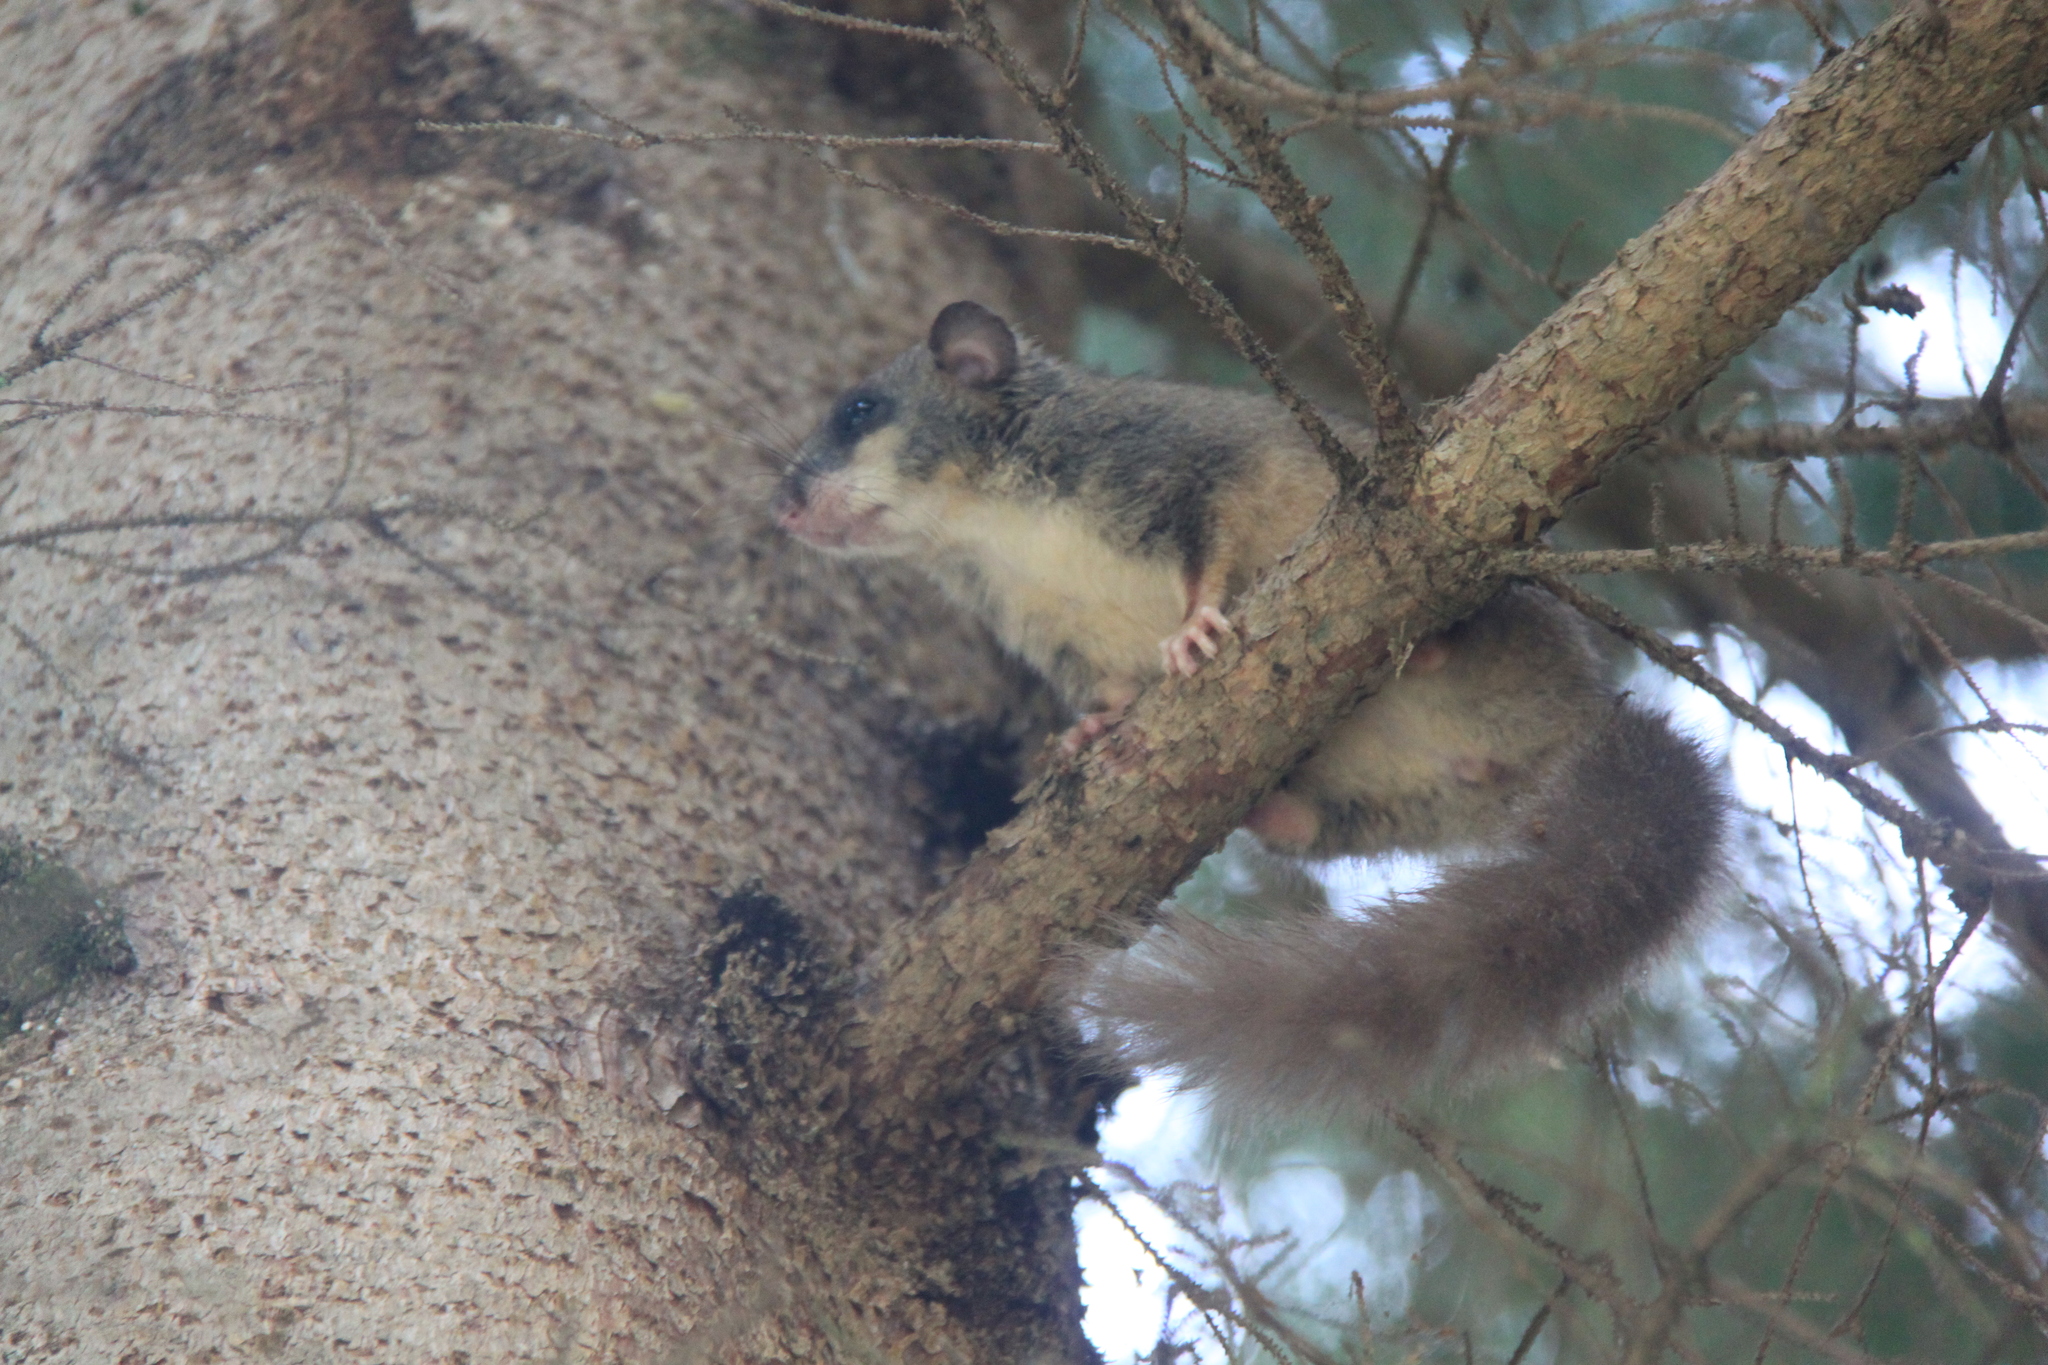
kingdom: Animalia
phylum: Chordata
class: Mammalia
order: Rodentia
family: Gliridae
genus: Glis
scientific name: Glis glis
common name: Fat dormouse
